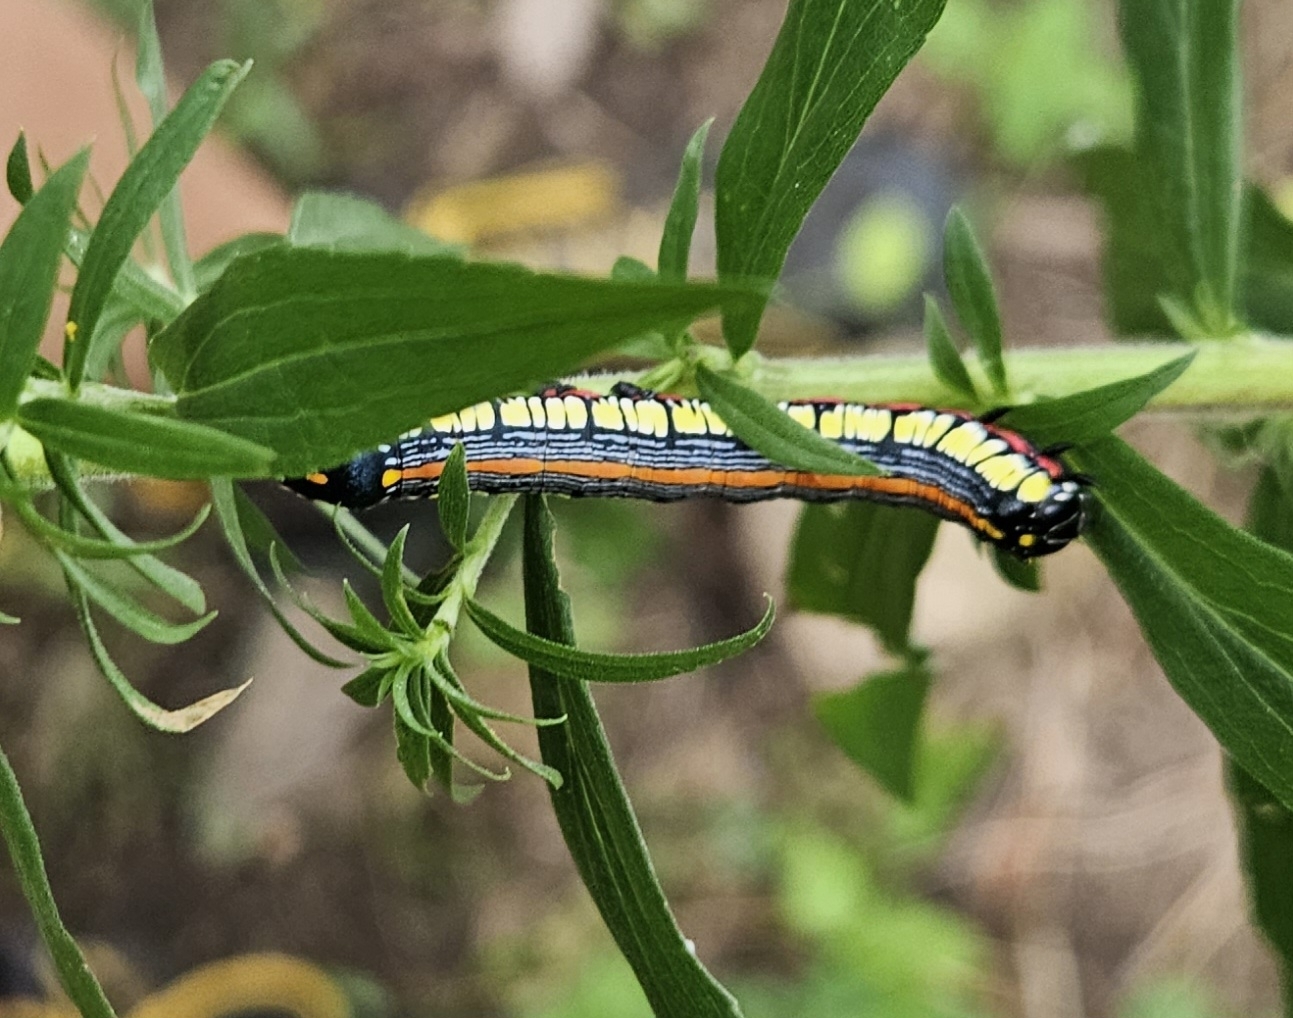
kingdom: Animalia
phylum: Arthropoda
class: Insecta
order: Lepidoptera
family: Noctuidae
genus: Cucullia
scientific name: Cucullia convexipennis
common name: Brown-hooded owlet
